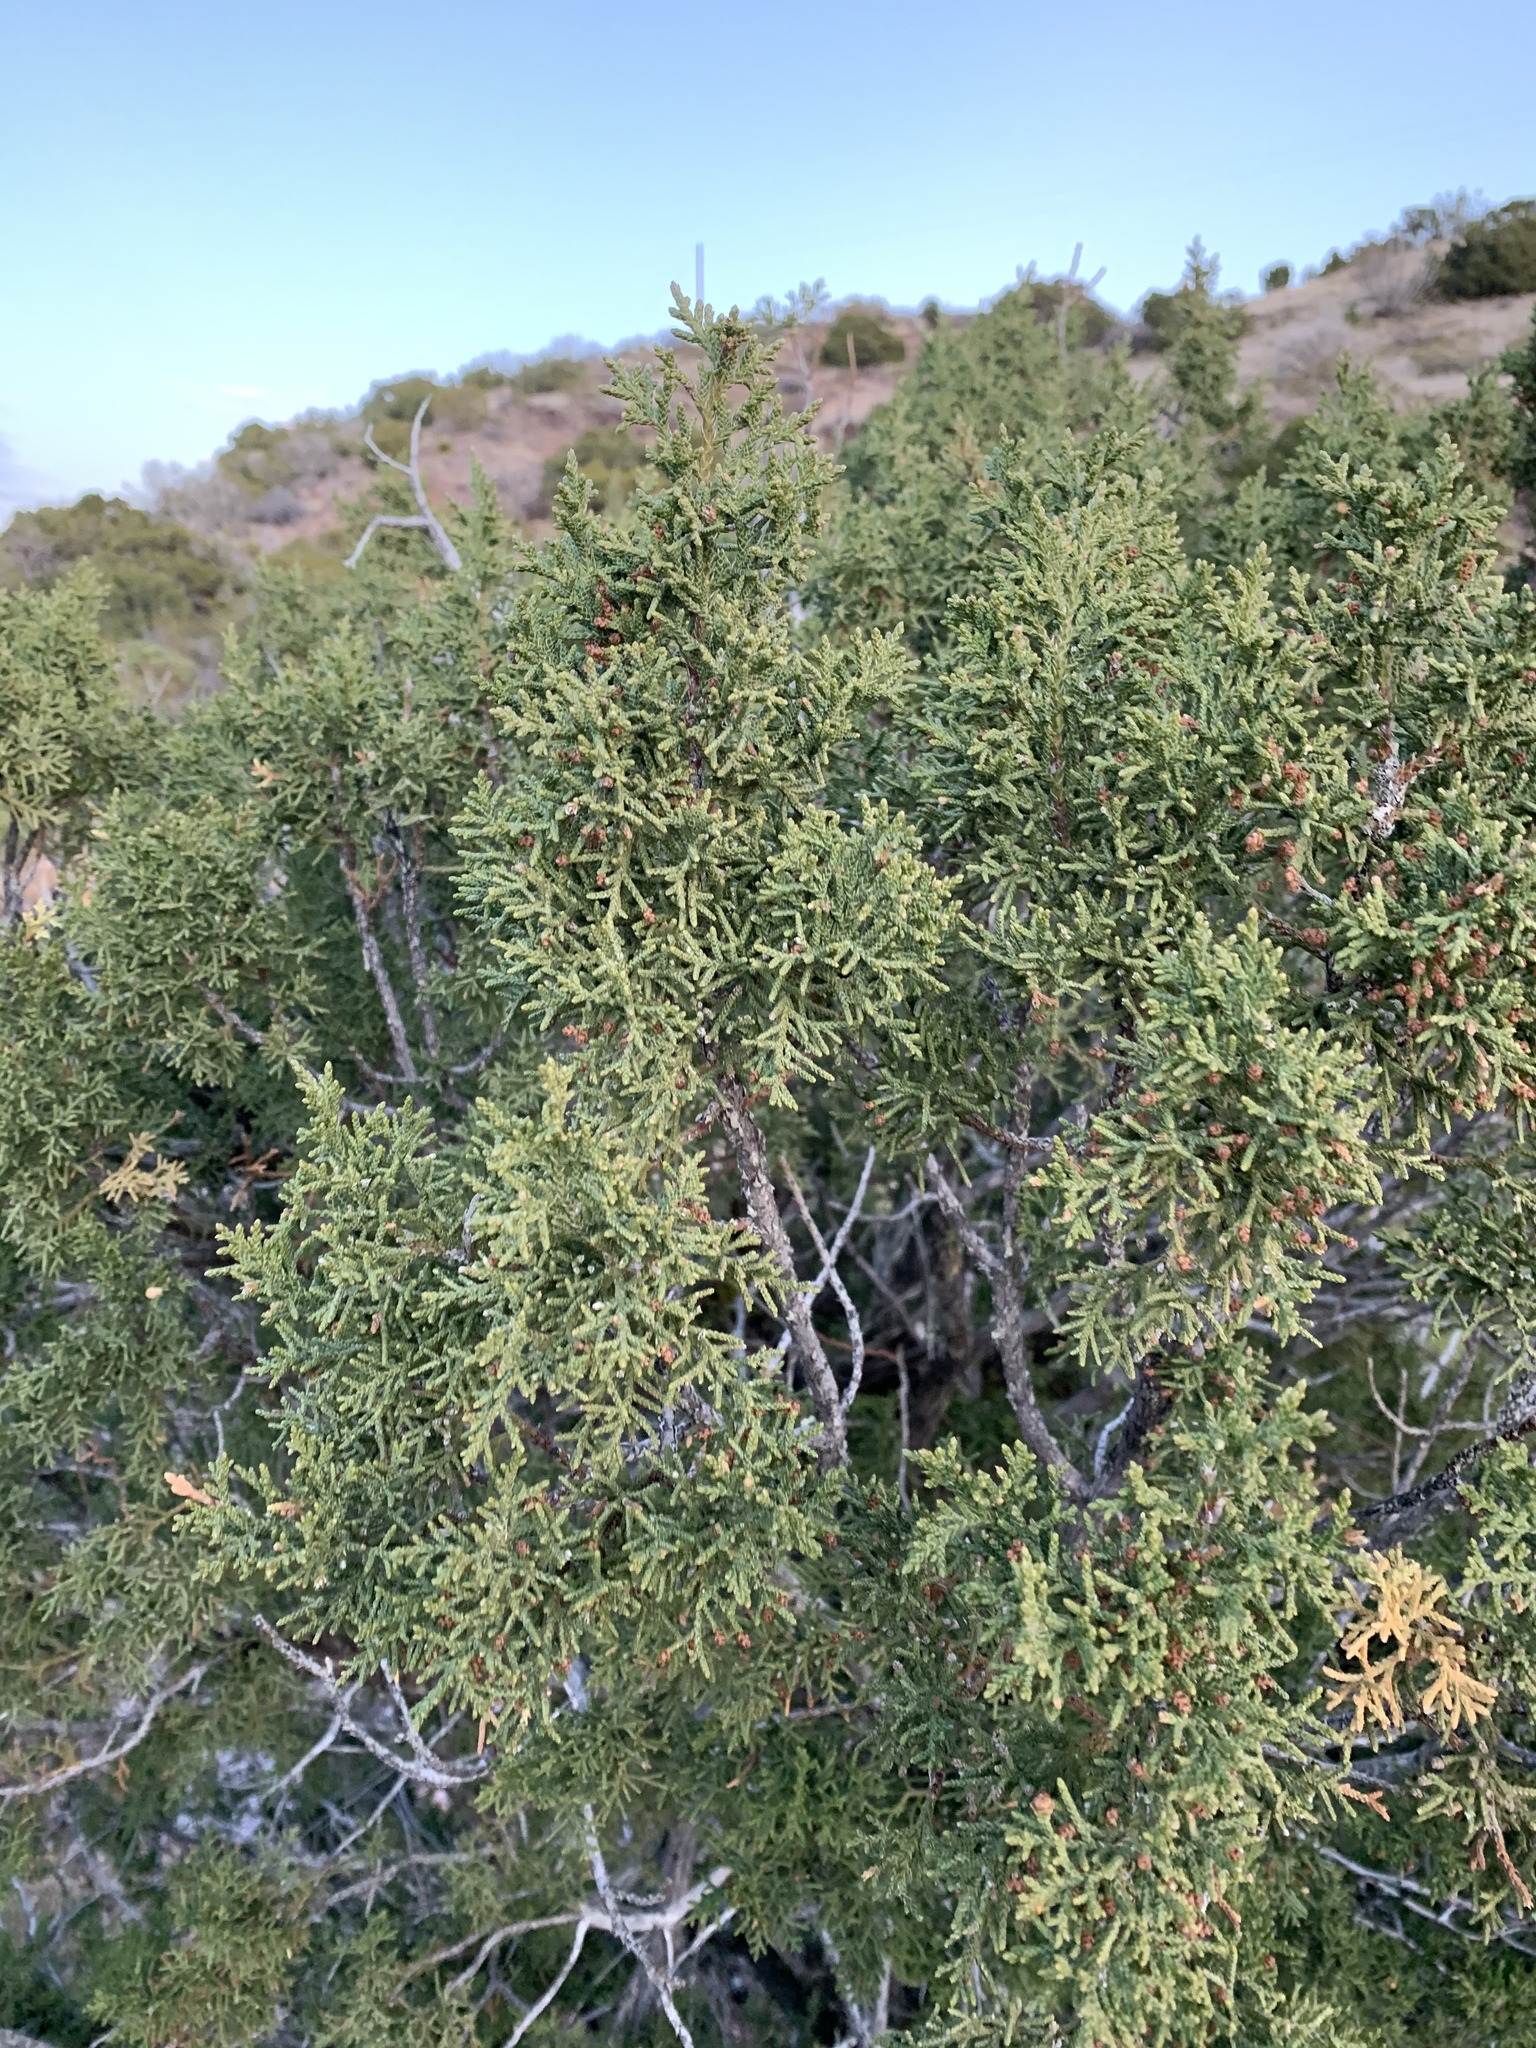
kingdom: Plantae
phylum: Tracheophyta
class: Pinopsida
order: Pinales
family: Cupressaceae
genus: Juniperus
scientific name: Juniperus monosperma
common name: One-seed juniper
